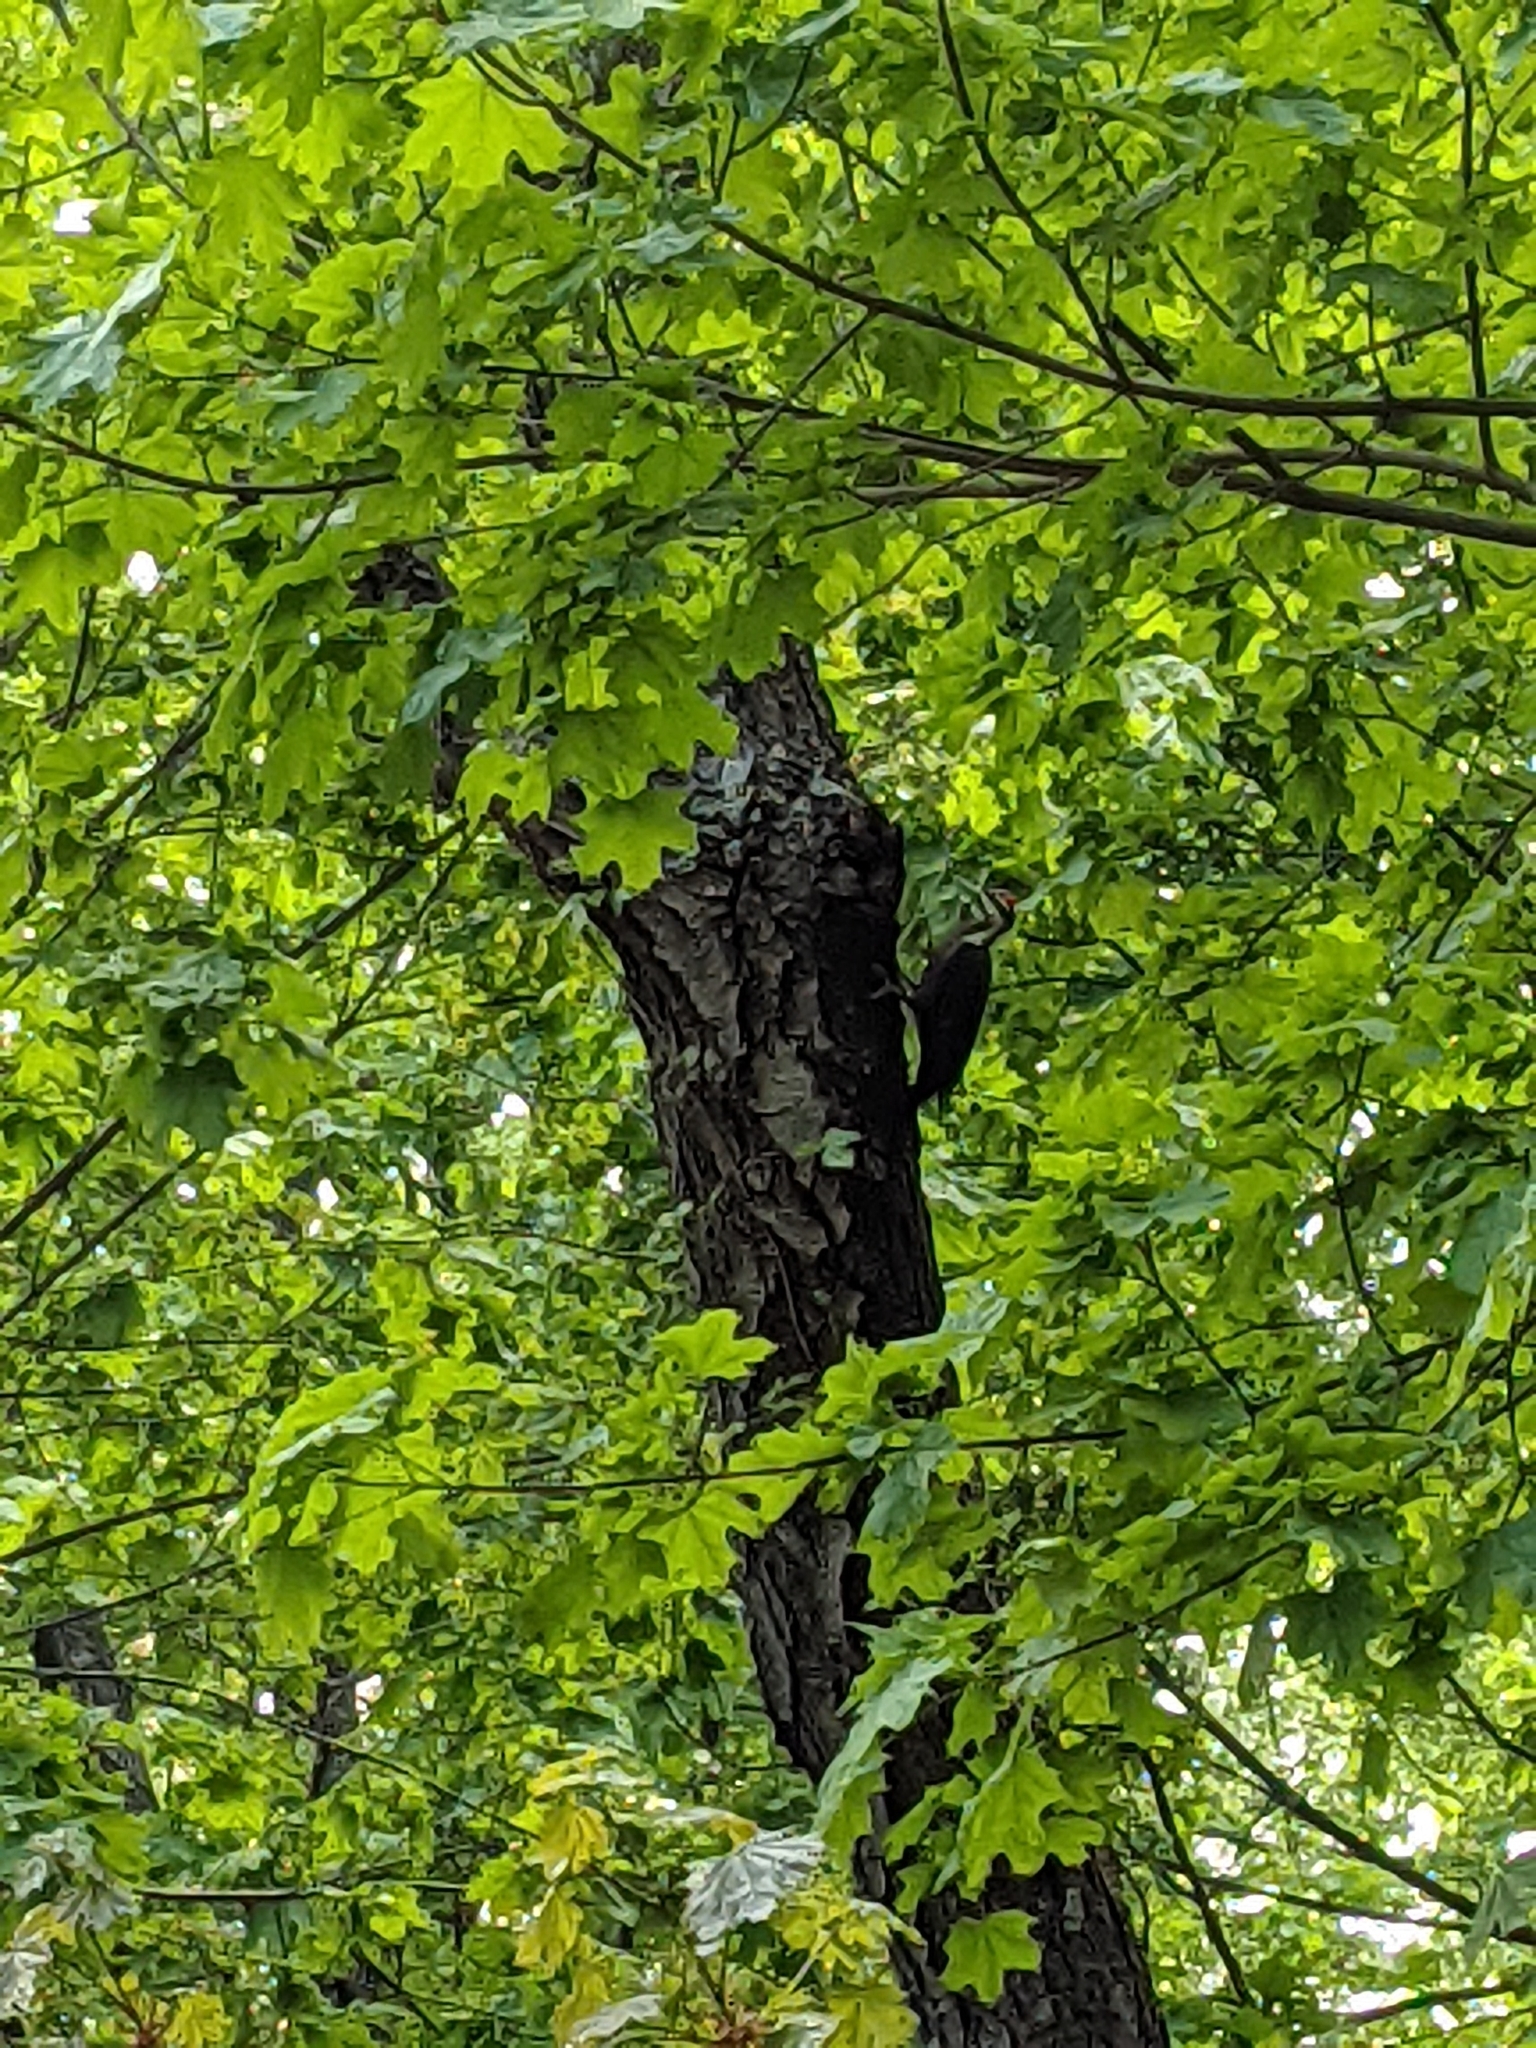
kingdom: Animalia
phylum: Chordata
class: Aves
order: Piciformes
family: Picidae
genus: Dryocopus
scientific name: Dryocopus pileatus
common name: Pileated woodpecker
